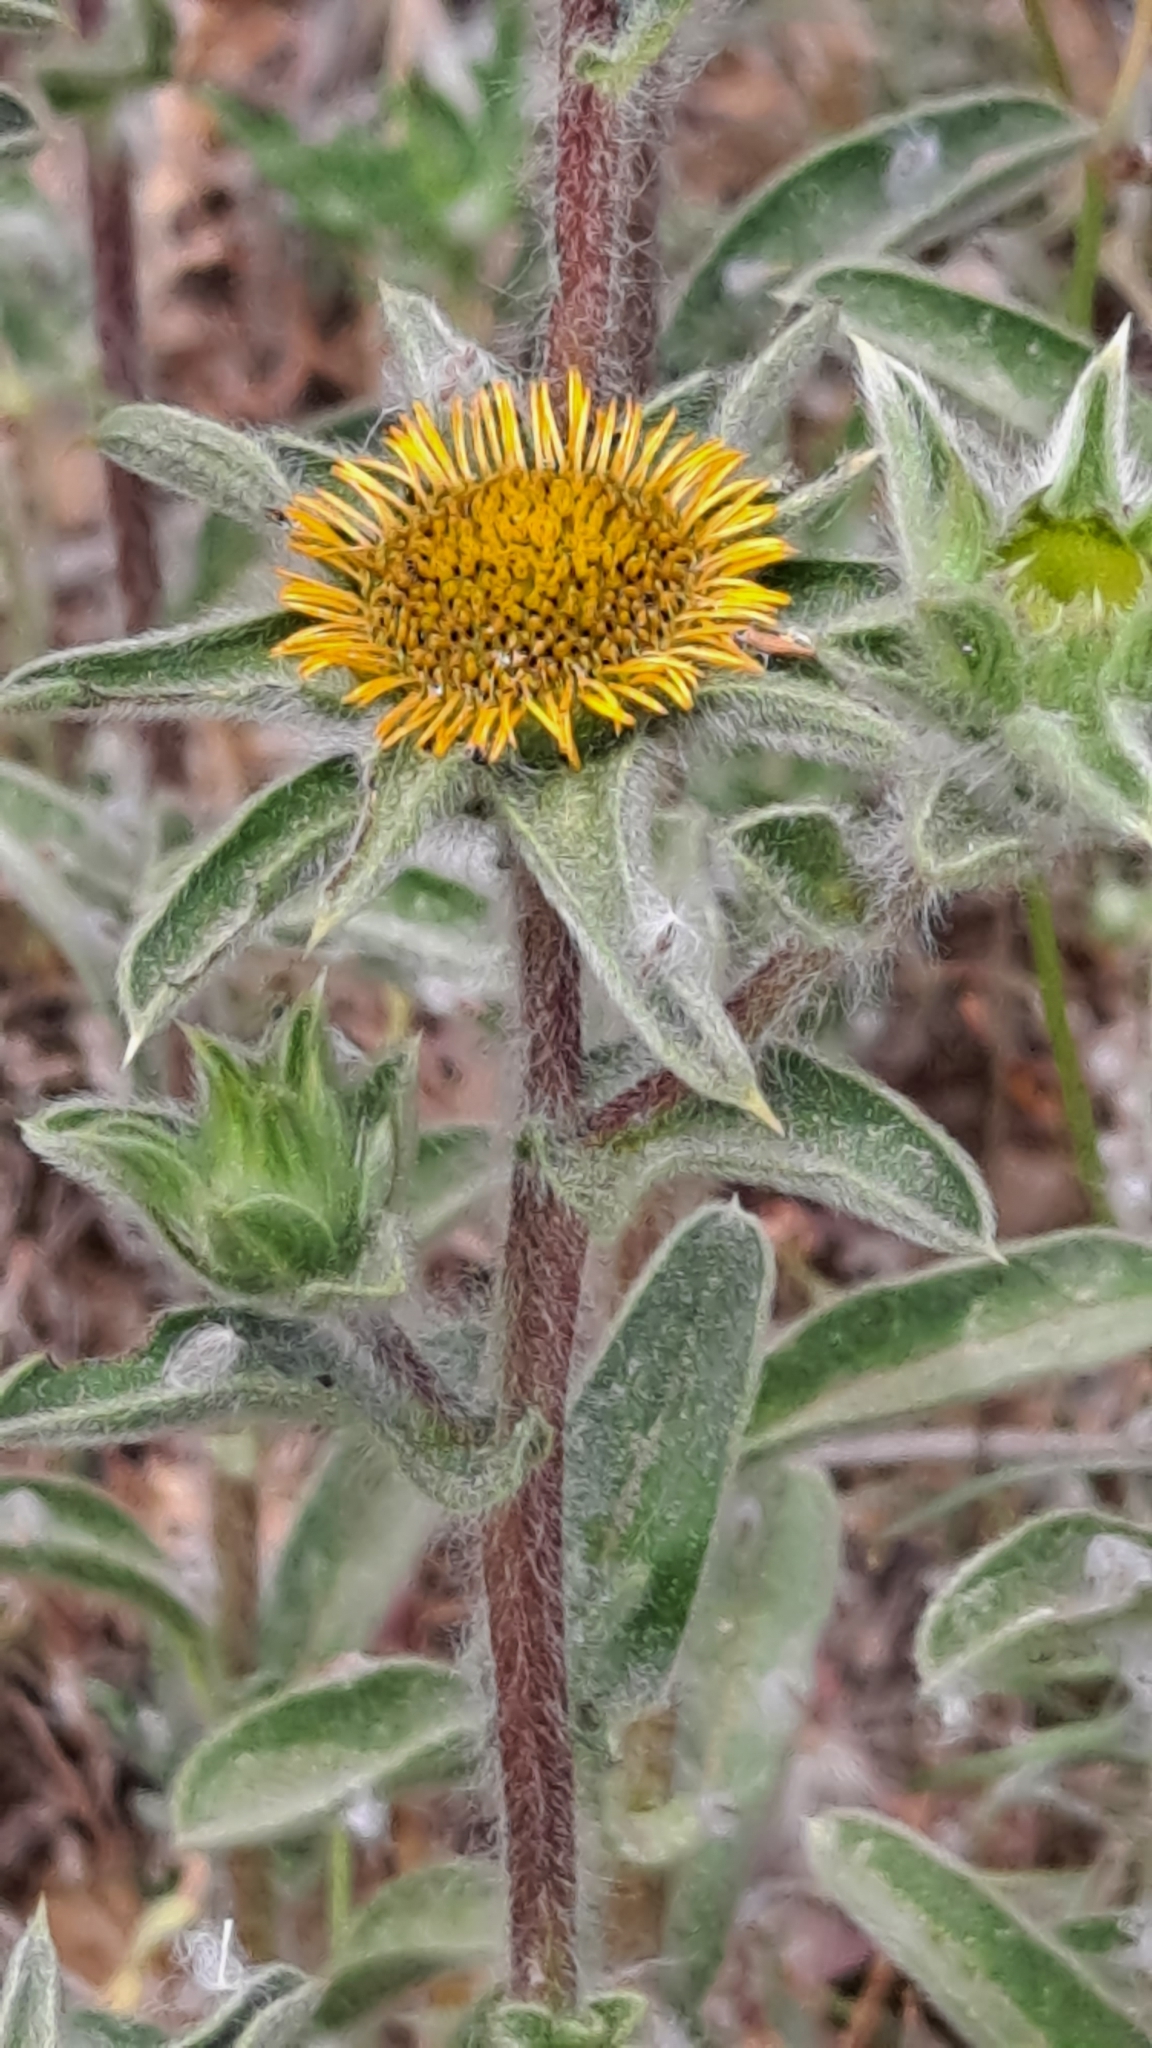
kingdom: Plantae
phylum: Tracheophyta
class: Magnoliopsida
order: Asterales
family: Asteraceae
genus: Pallenis
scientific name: Pallenis spinosa
